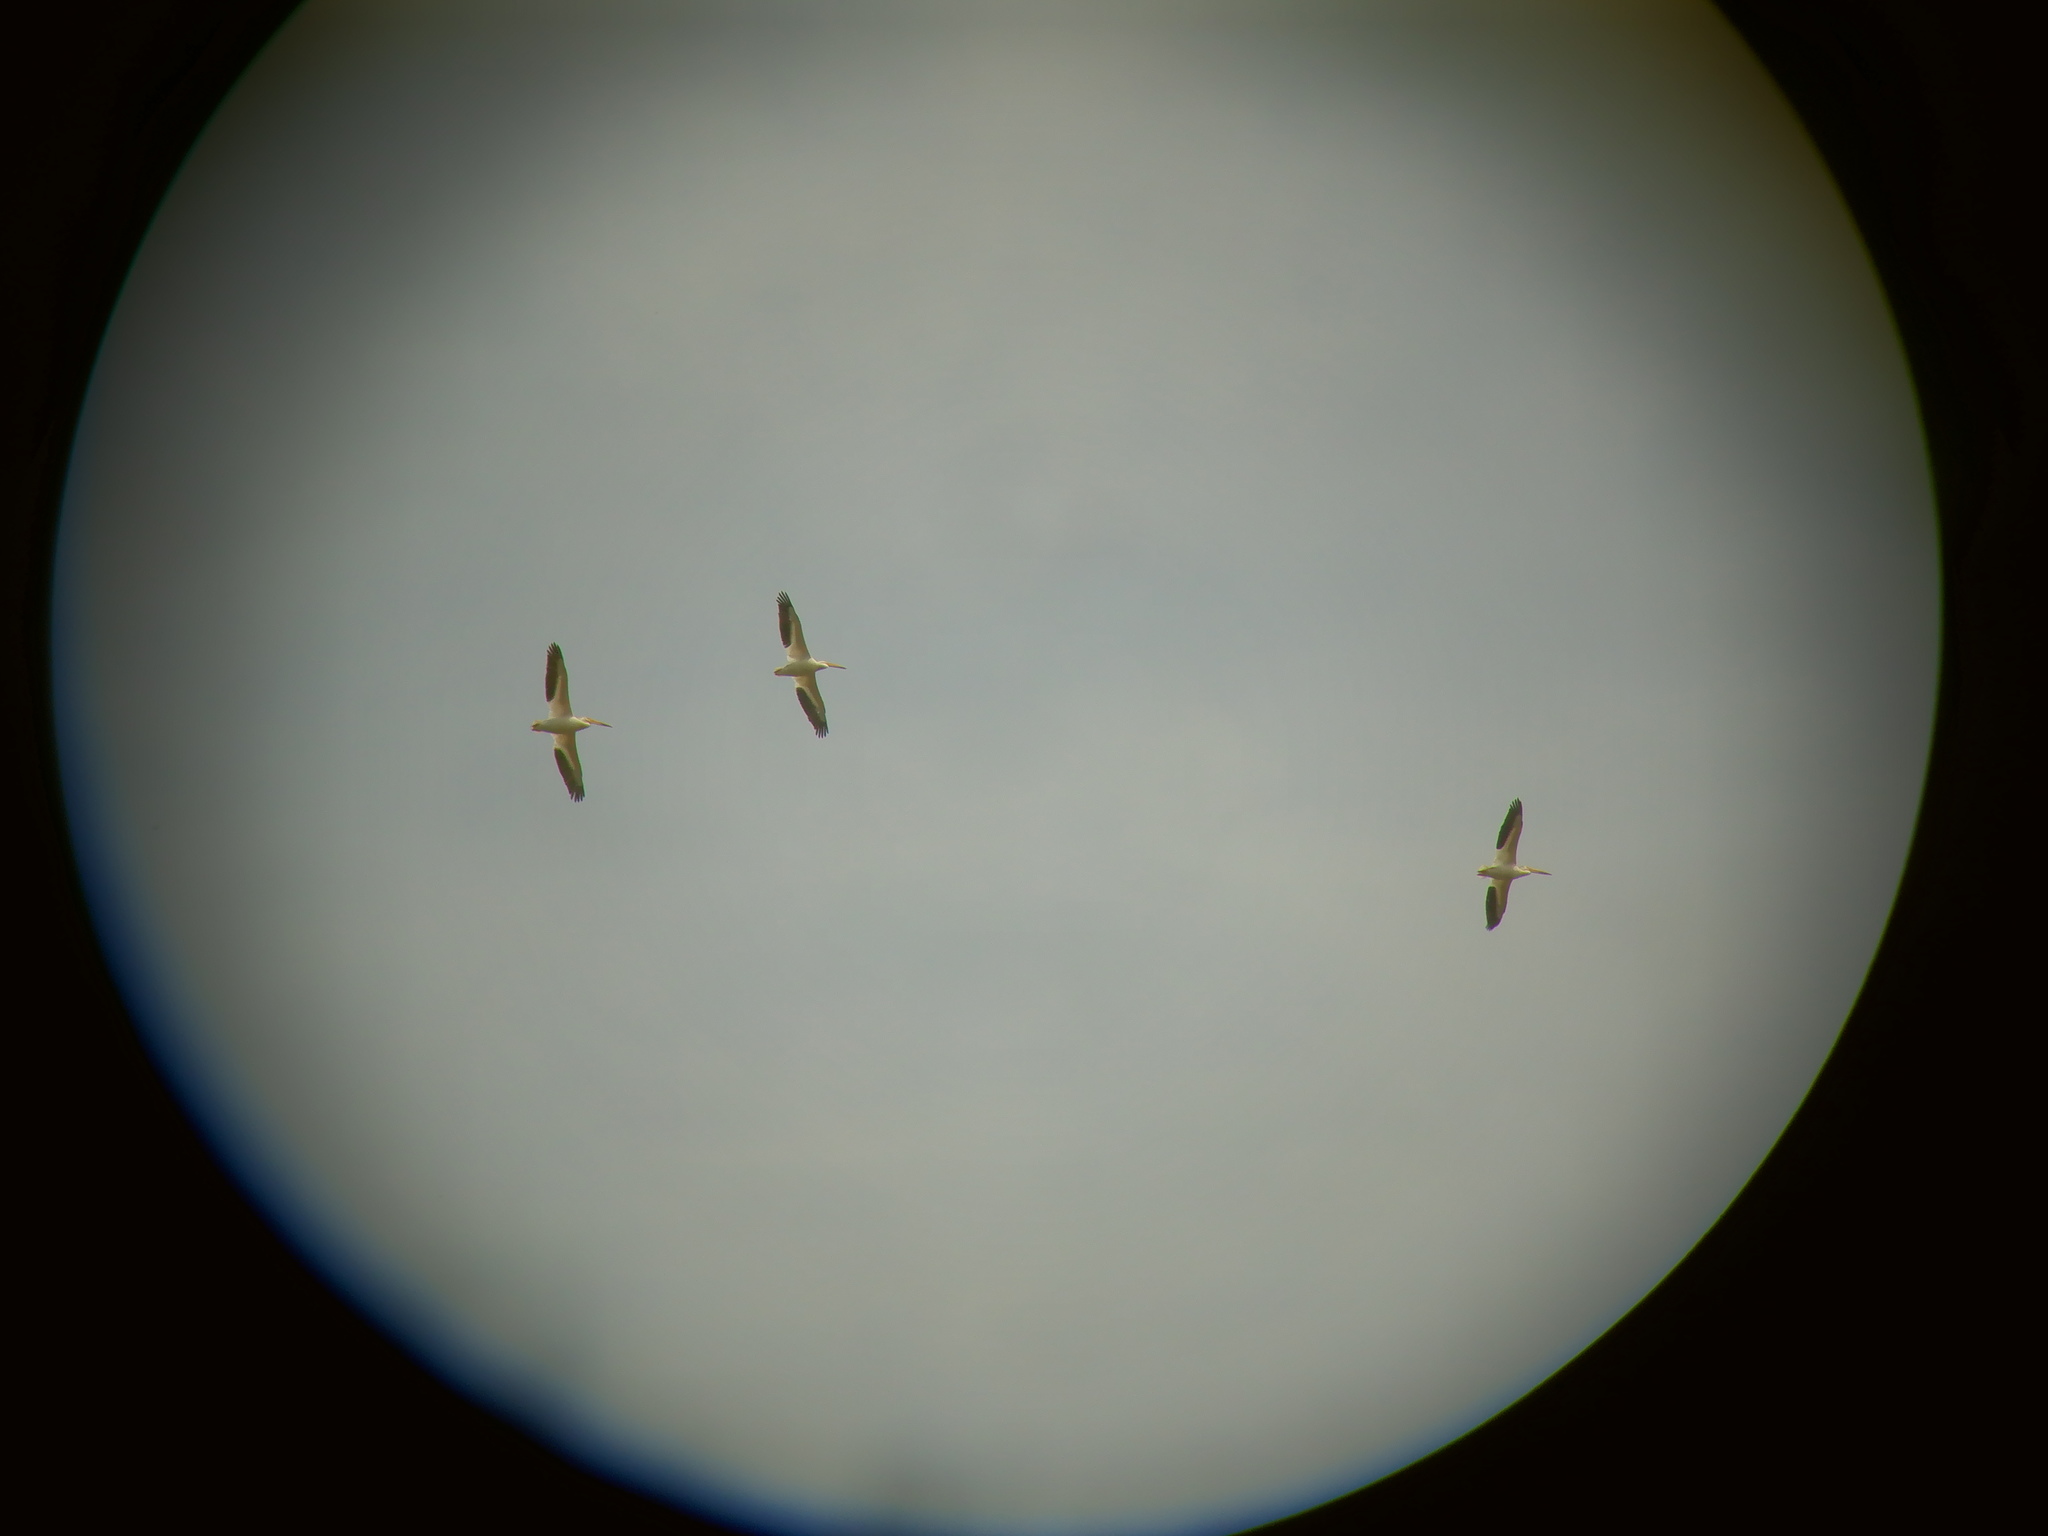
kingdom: Animalia
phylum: Chordata
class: Aves
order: Pelecaniformes
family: Pelecanidae
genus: Pelecanus
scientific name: Pelecanus erythrorhynchos
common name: American white pelican
